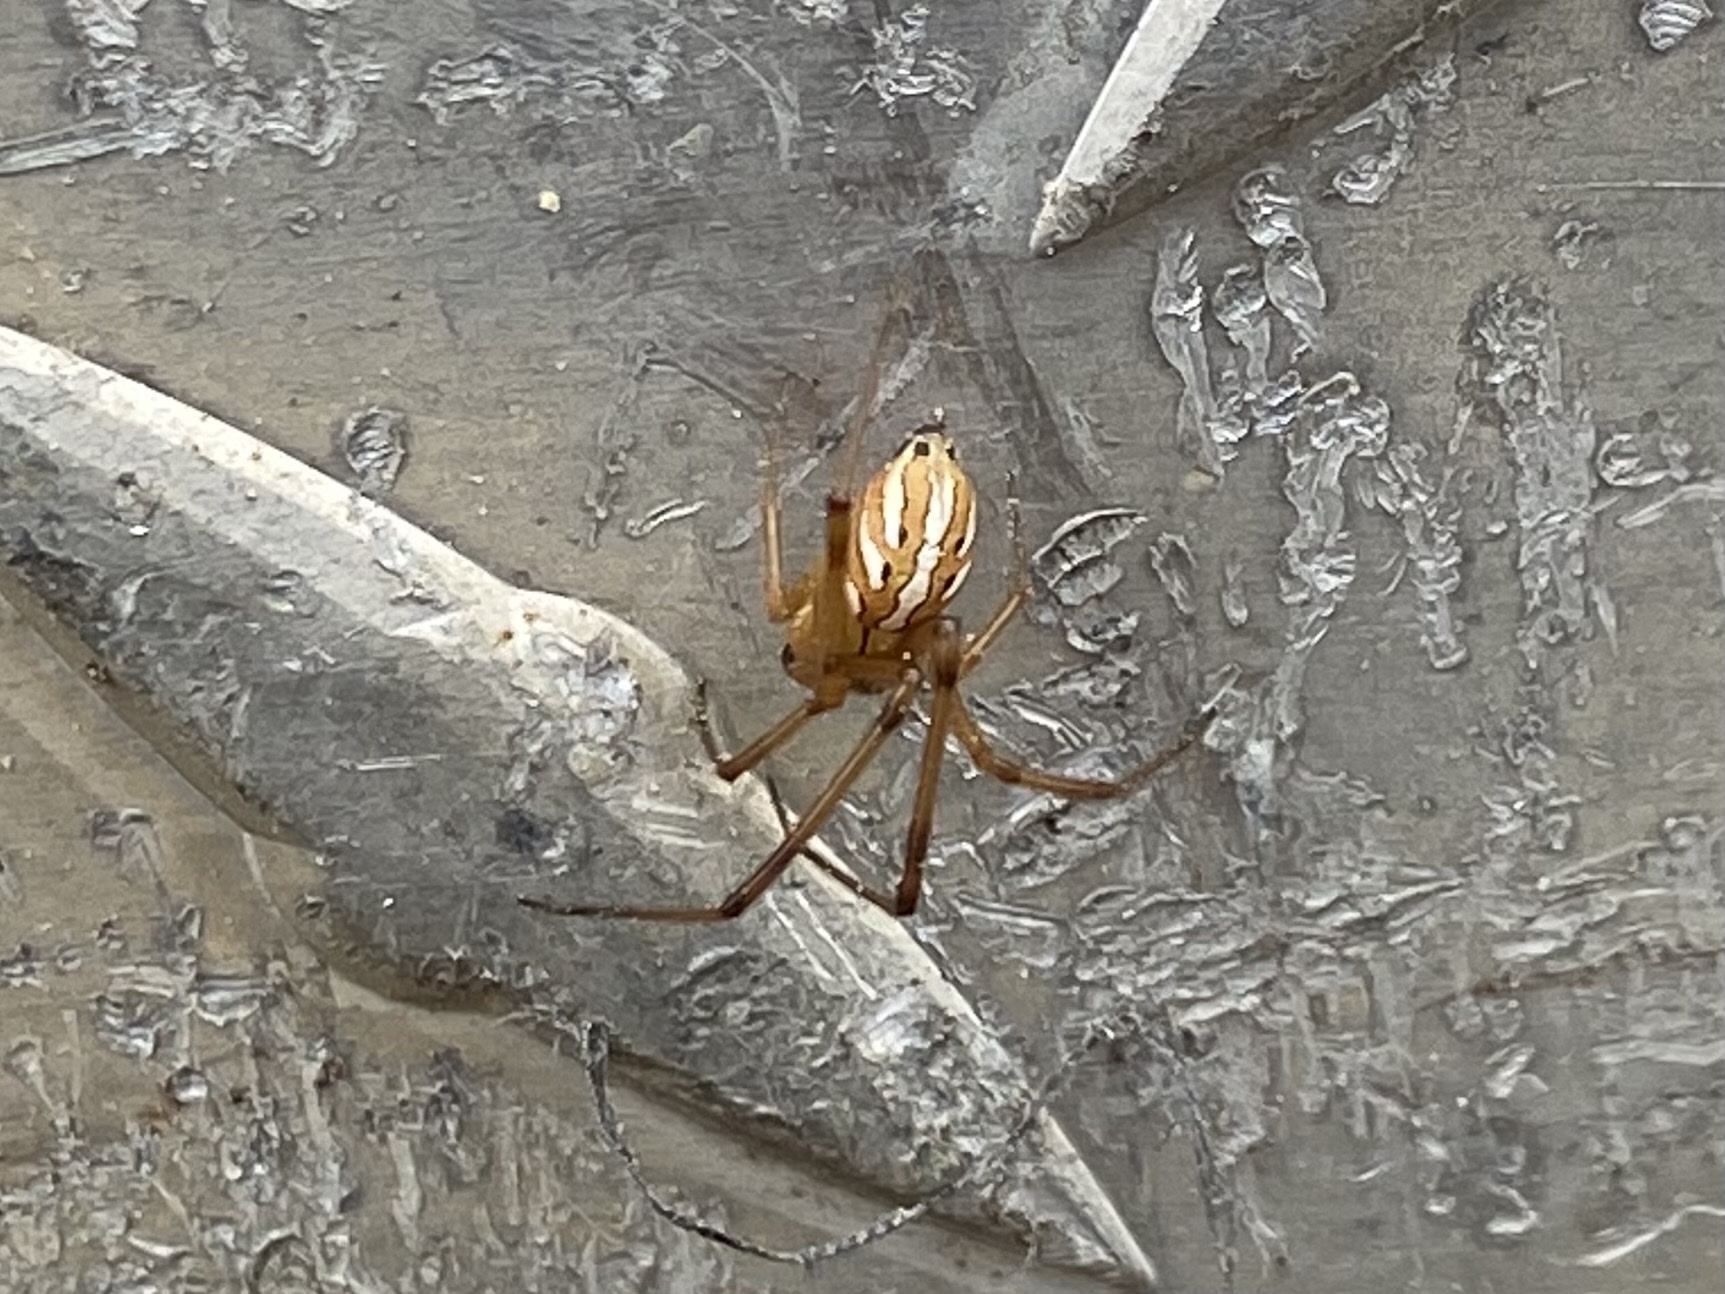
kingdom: Animalia
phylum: Arthropoda
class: Arachnida
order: Araneae
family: Theridiidae
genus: Latrodectus
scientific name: Latrodectus hesperus
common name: Western black widow
